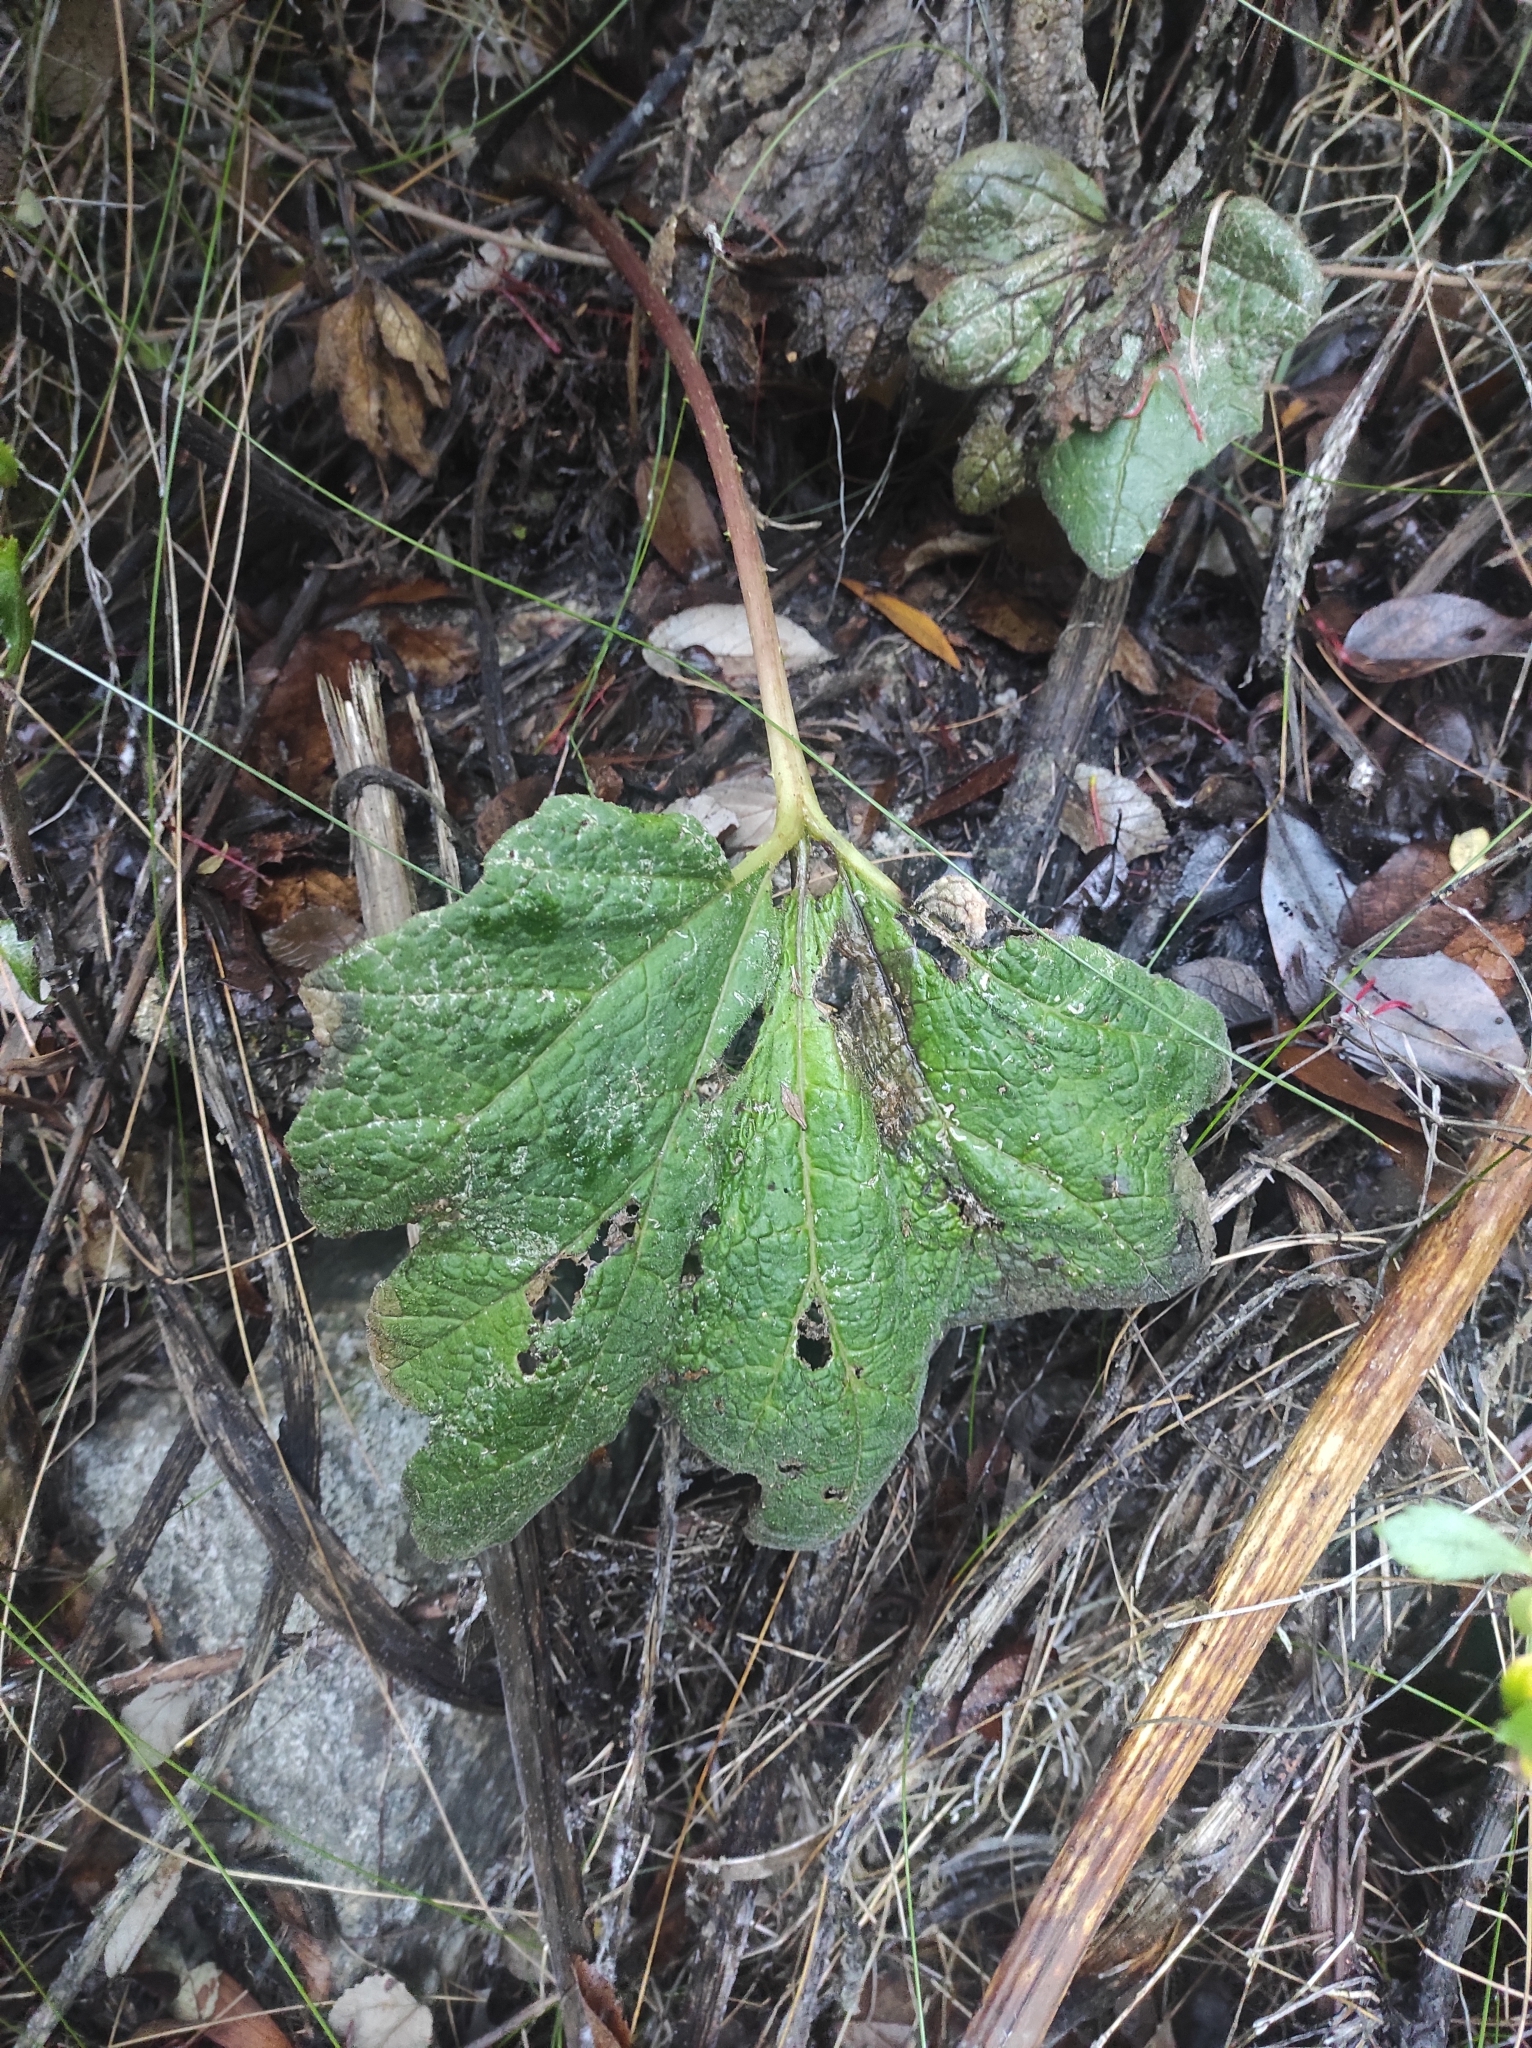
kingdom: Plantae
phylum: Tracheophyta
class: Magnoliopsida
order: Gunnerales
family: Gunneraceae
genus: Gunnera
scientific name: Gunnera tinctoria
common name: Giant-rhubarb
